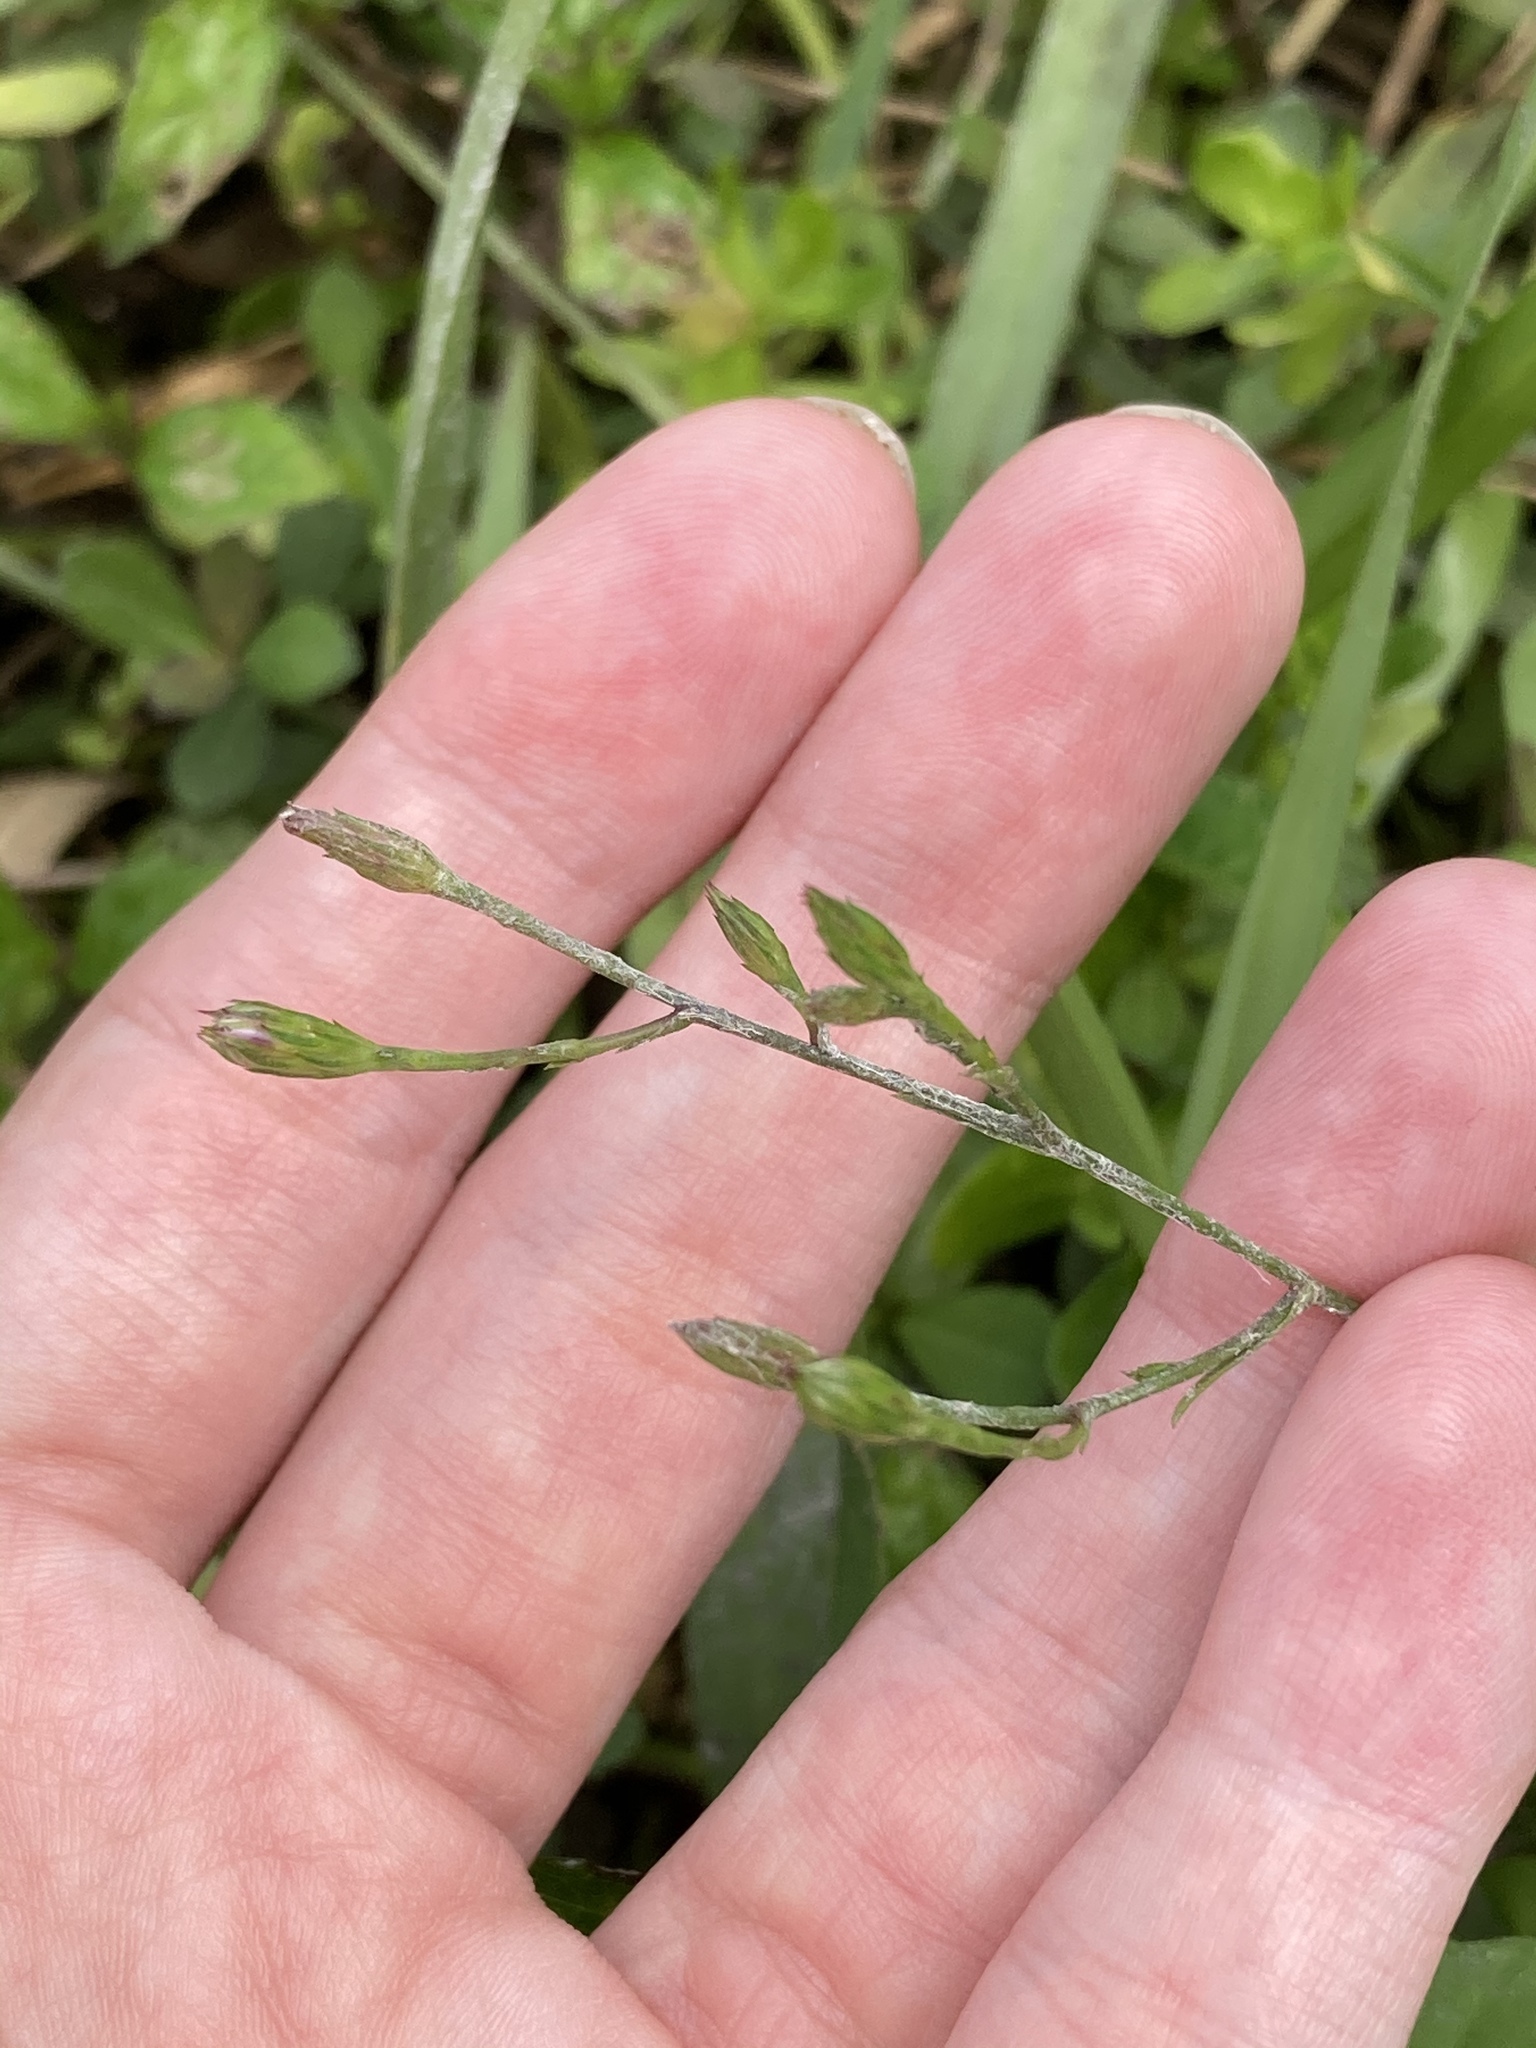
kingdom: Plantae
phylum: Tracheophyta
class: Magnoliopsida
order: Asterales
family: Asteraceae
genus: Symphyotrichum
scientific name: Symphyotrichum subulatum
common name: Annual saltmarsh aster
